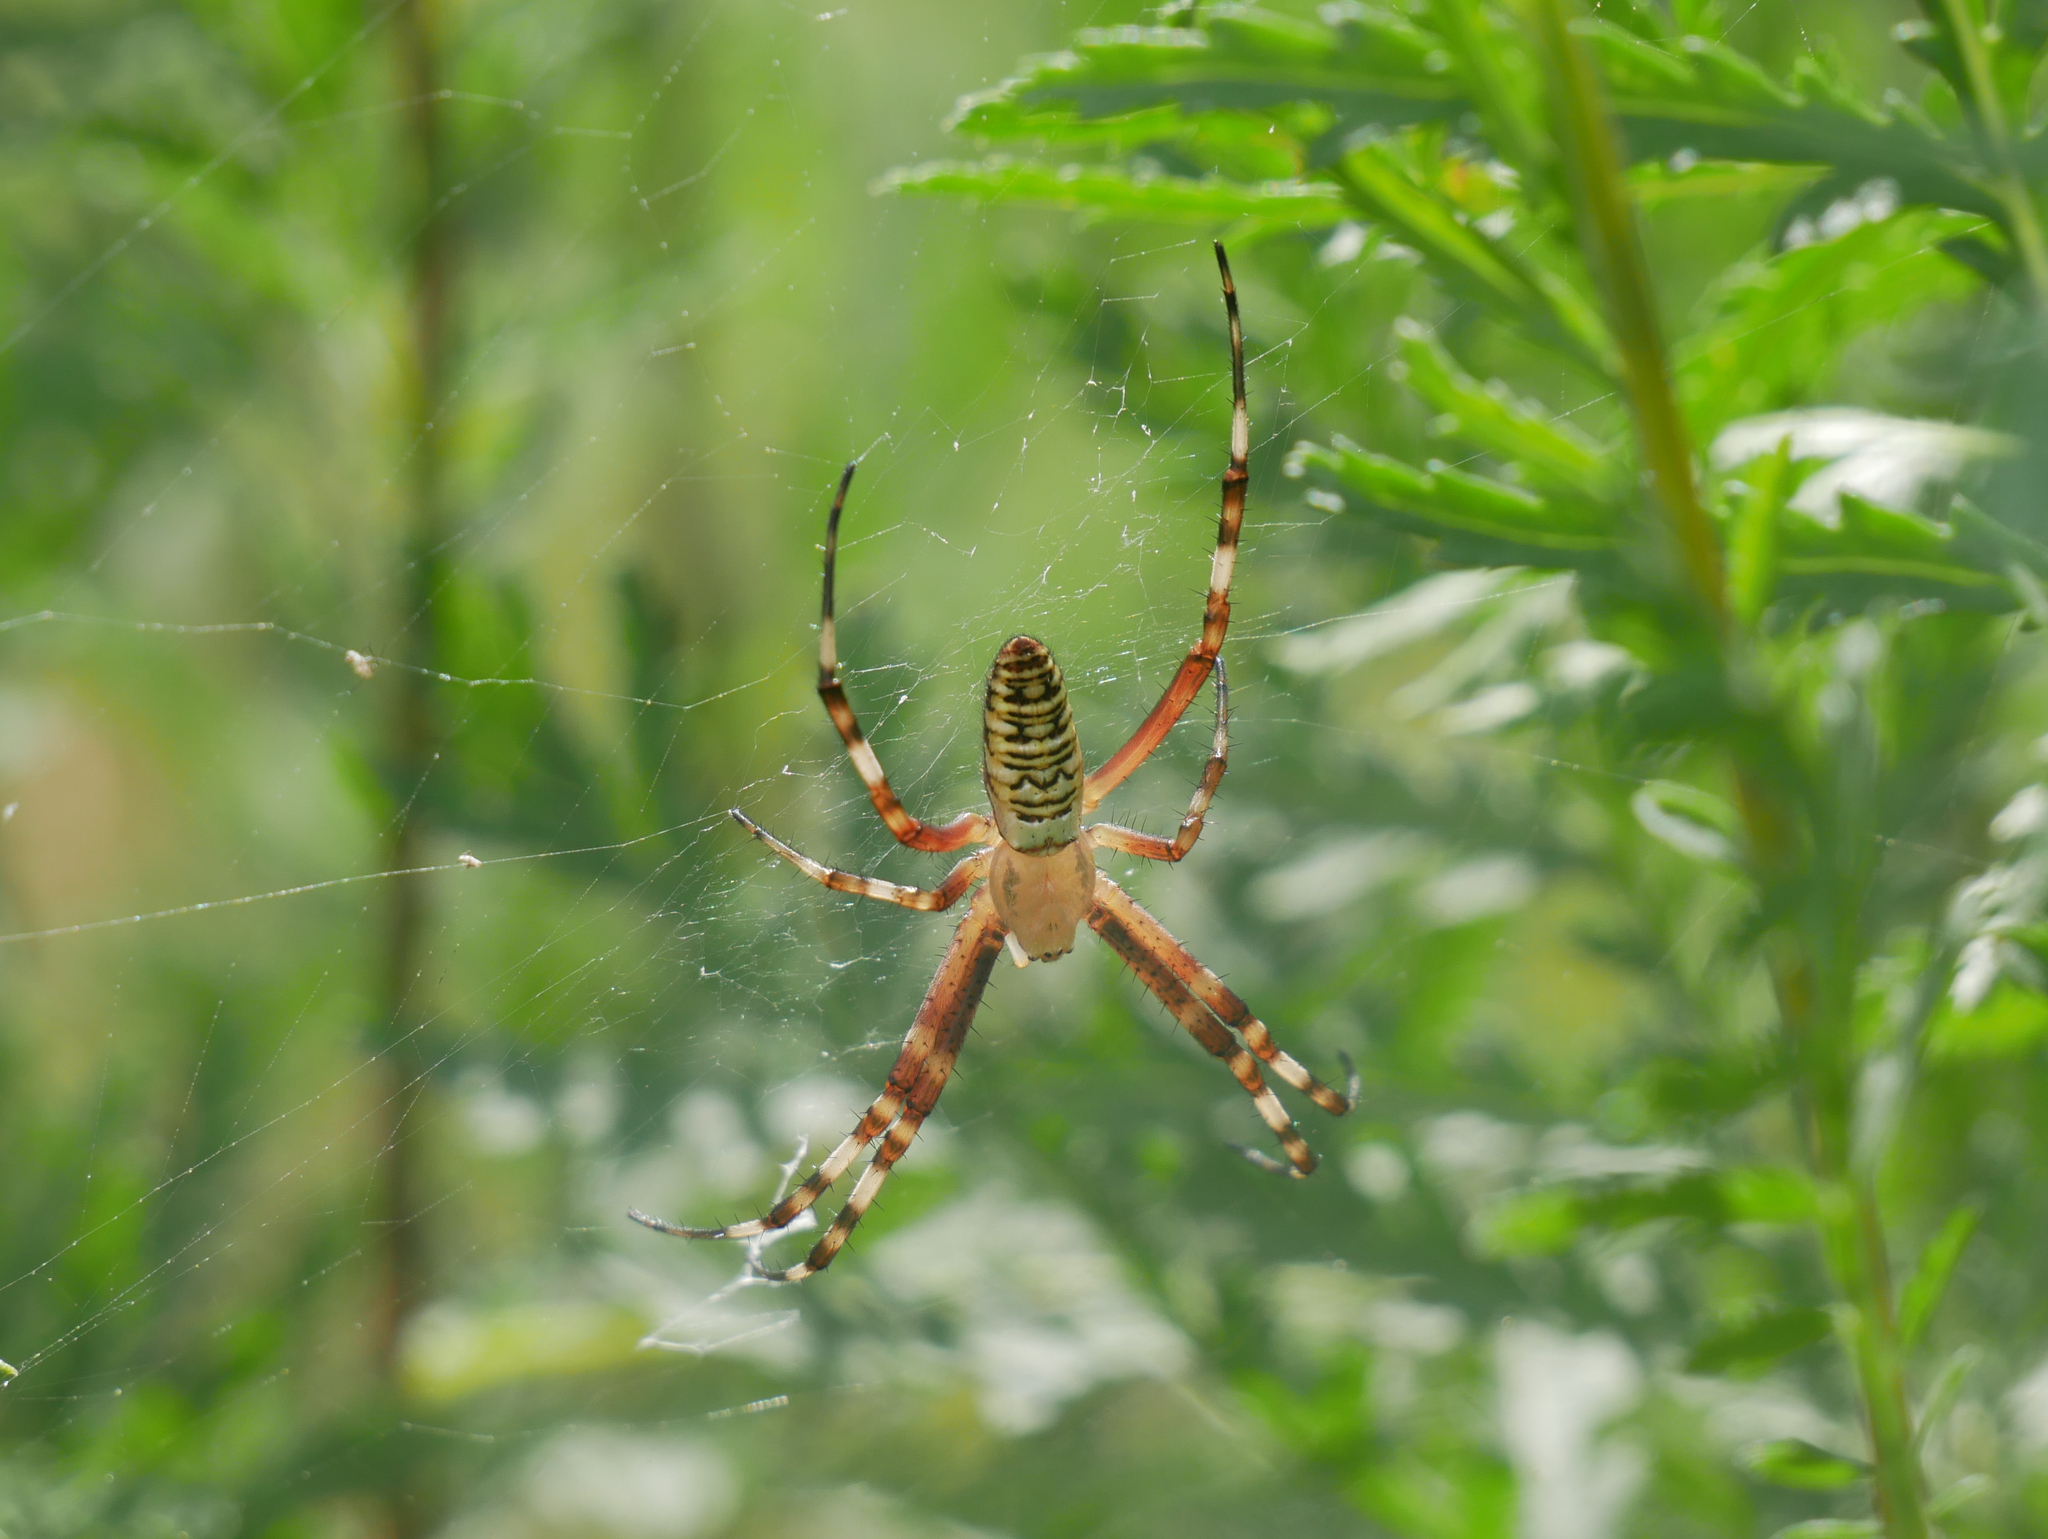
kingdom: Animalia
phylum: Arthropoda
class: Arachnida
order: Araneae
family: Araneidae
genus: Argiope
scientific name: Argiope bruennichi
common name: Wasp spider
